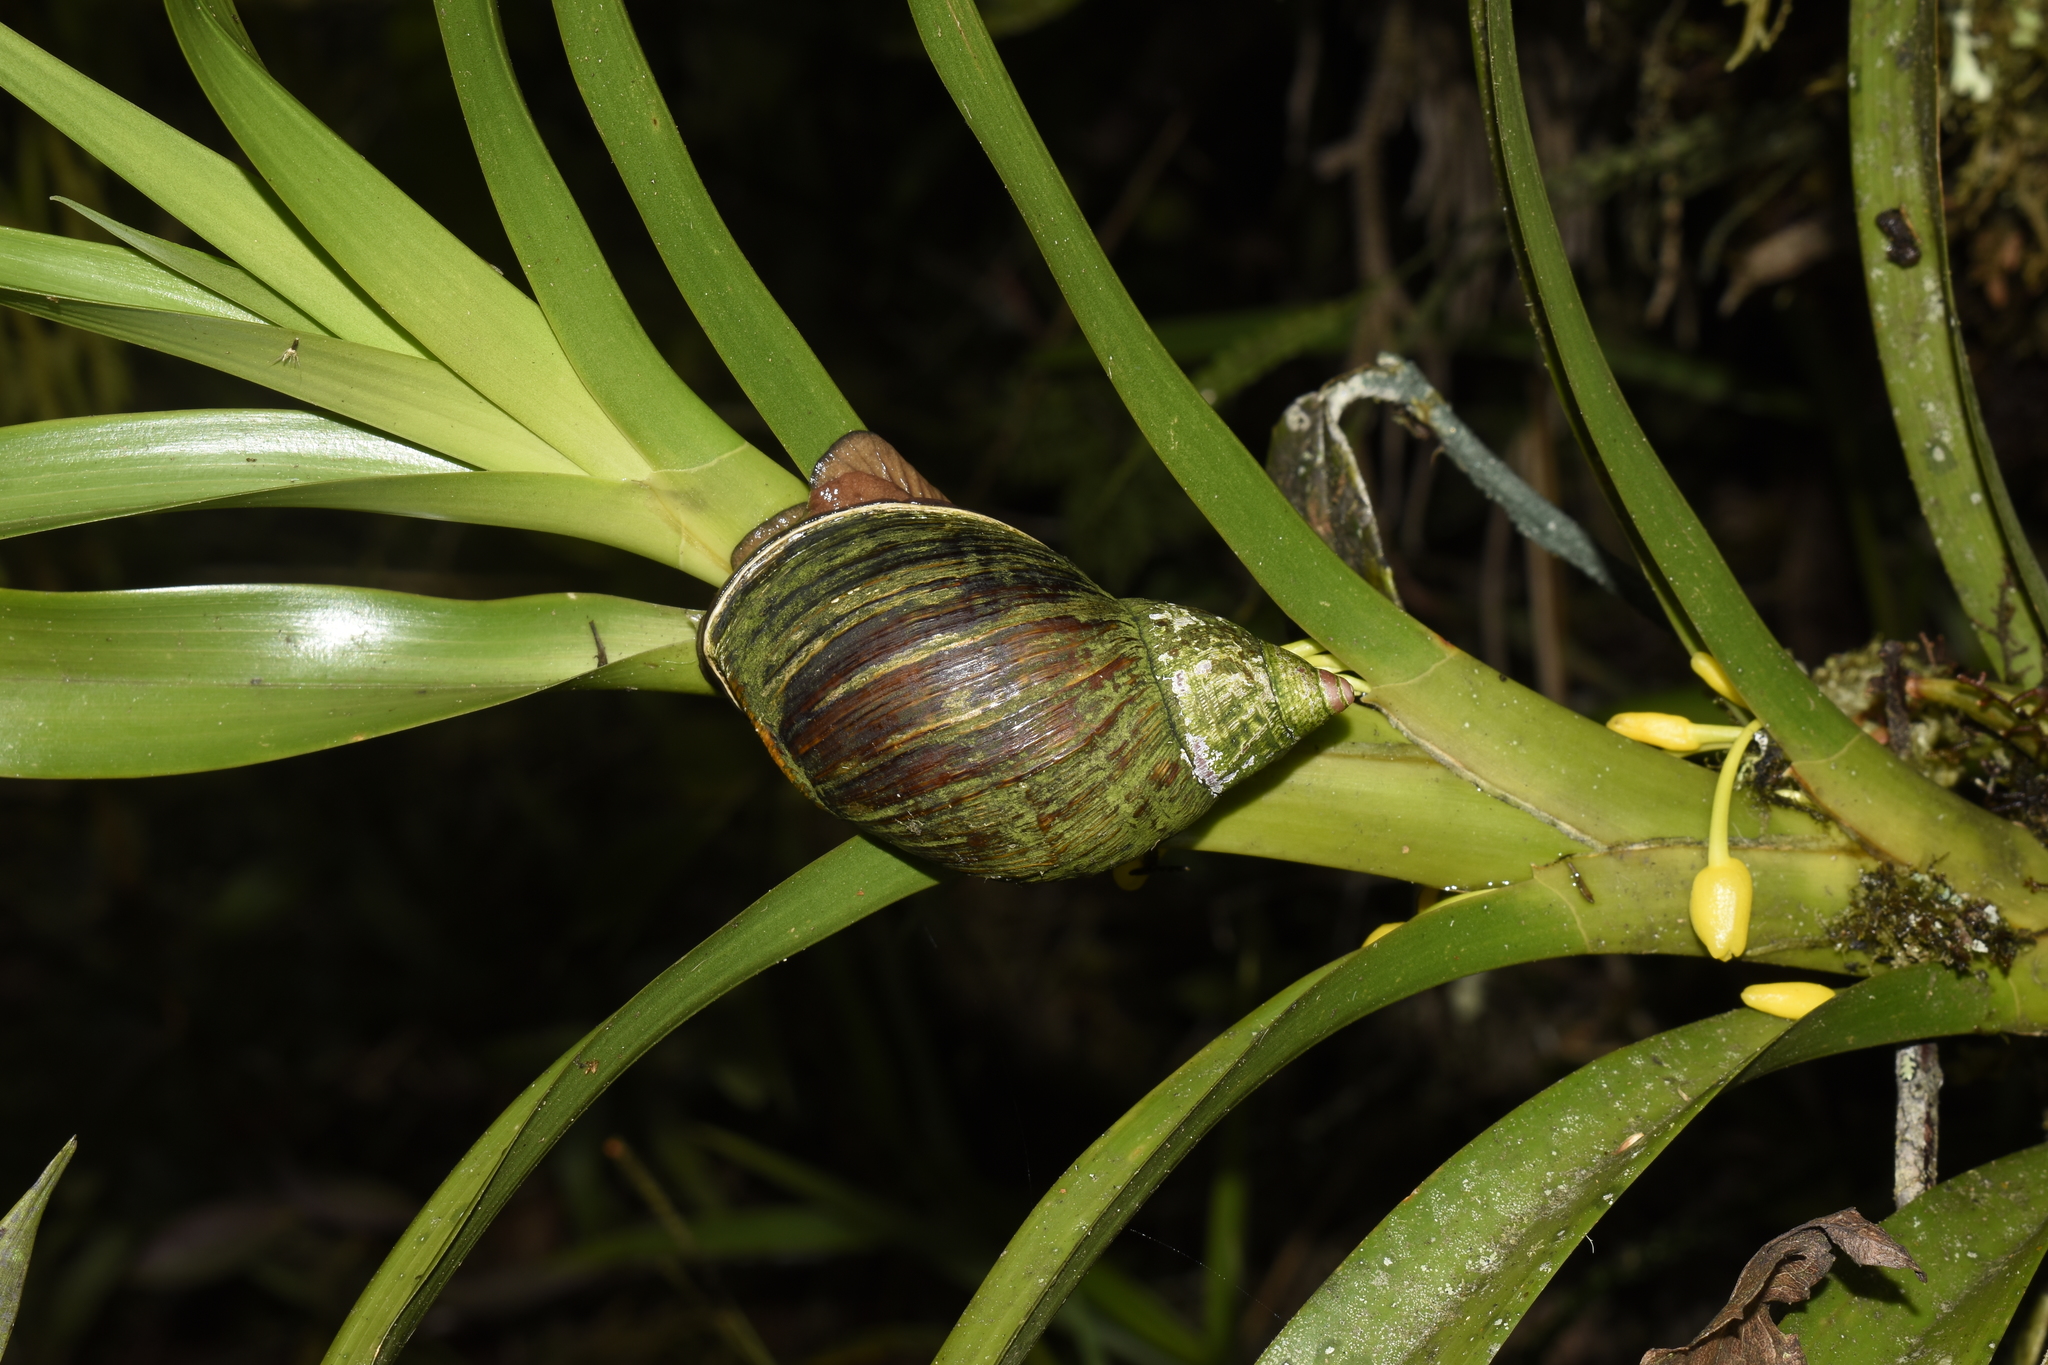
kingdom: Animalia
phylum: Mollusca
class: Gastropoda
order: Stylommatophora
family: Orthalicidae
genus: Porphyrobaphe
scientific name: Porphyrobaphe iris
